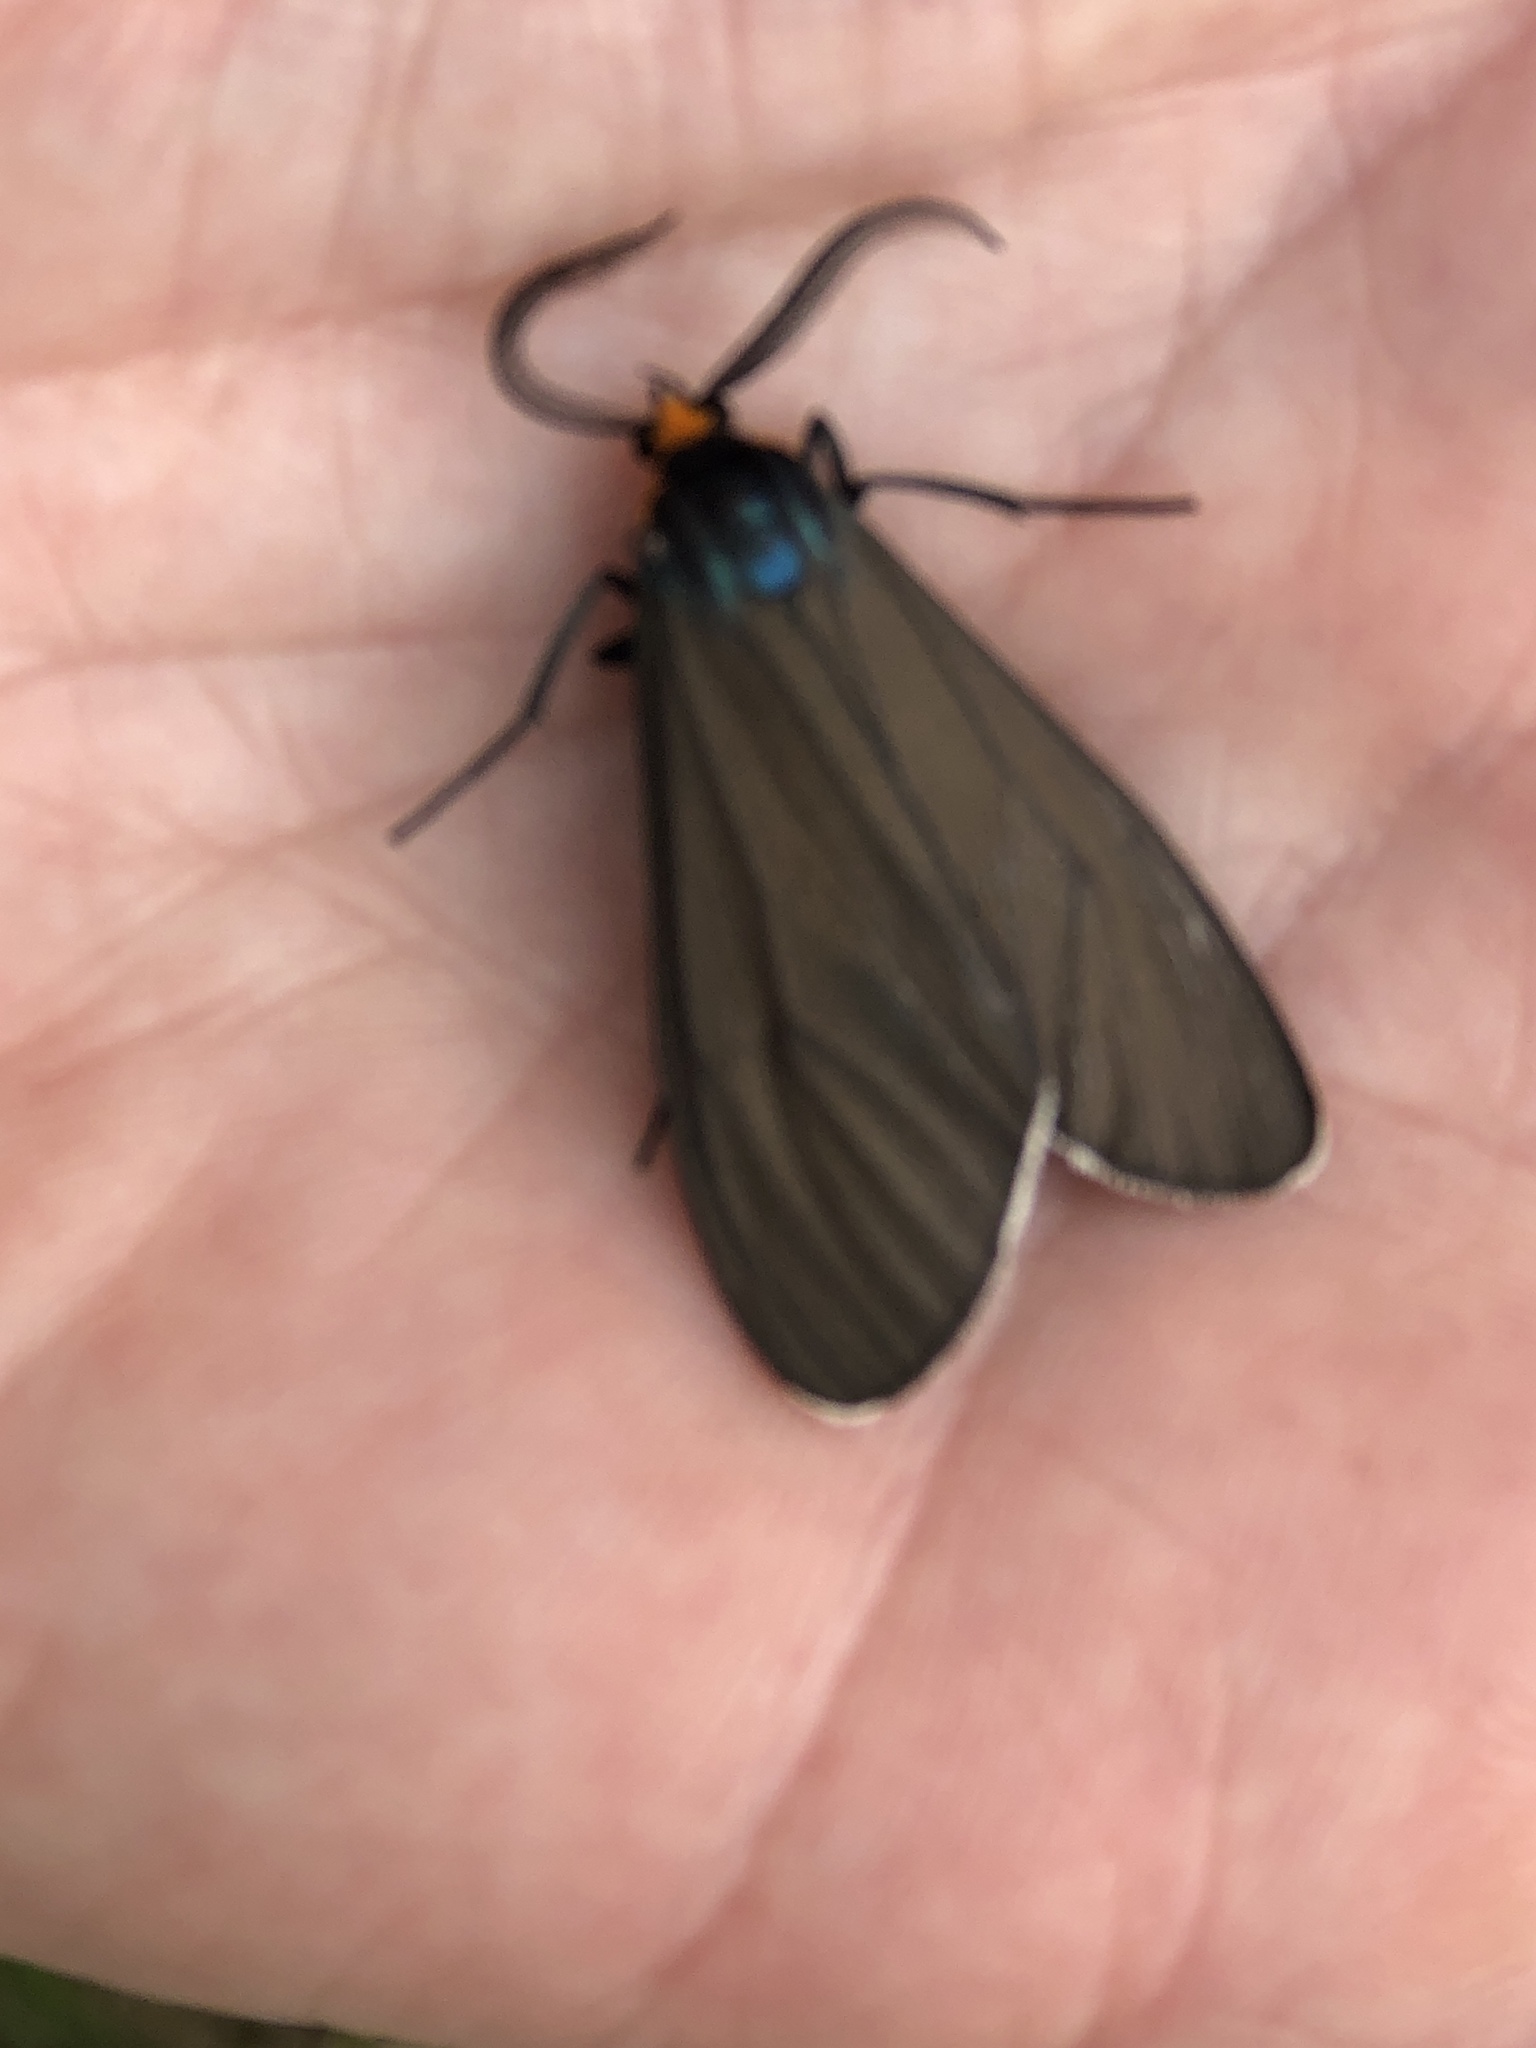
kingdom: Animalia
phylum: Arthropoda
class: Insecta
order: Lepidoptera
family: Erebidae
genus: Ctenucha
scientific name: Ctenucha virginica
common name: Virginia ctenucha moth
